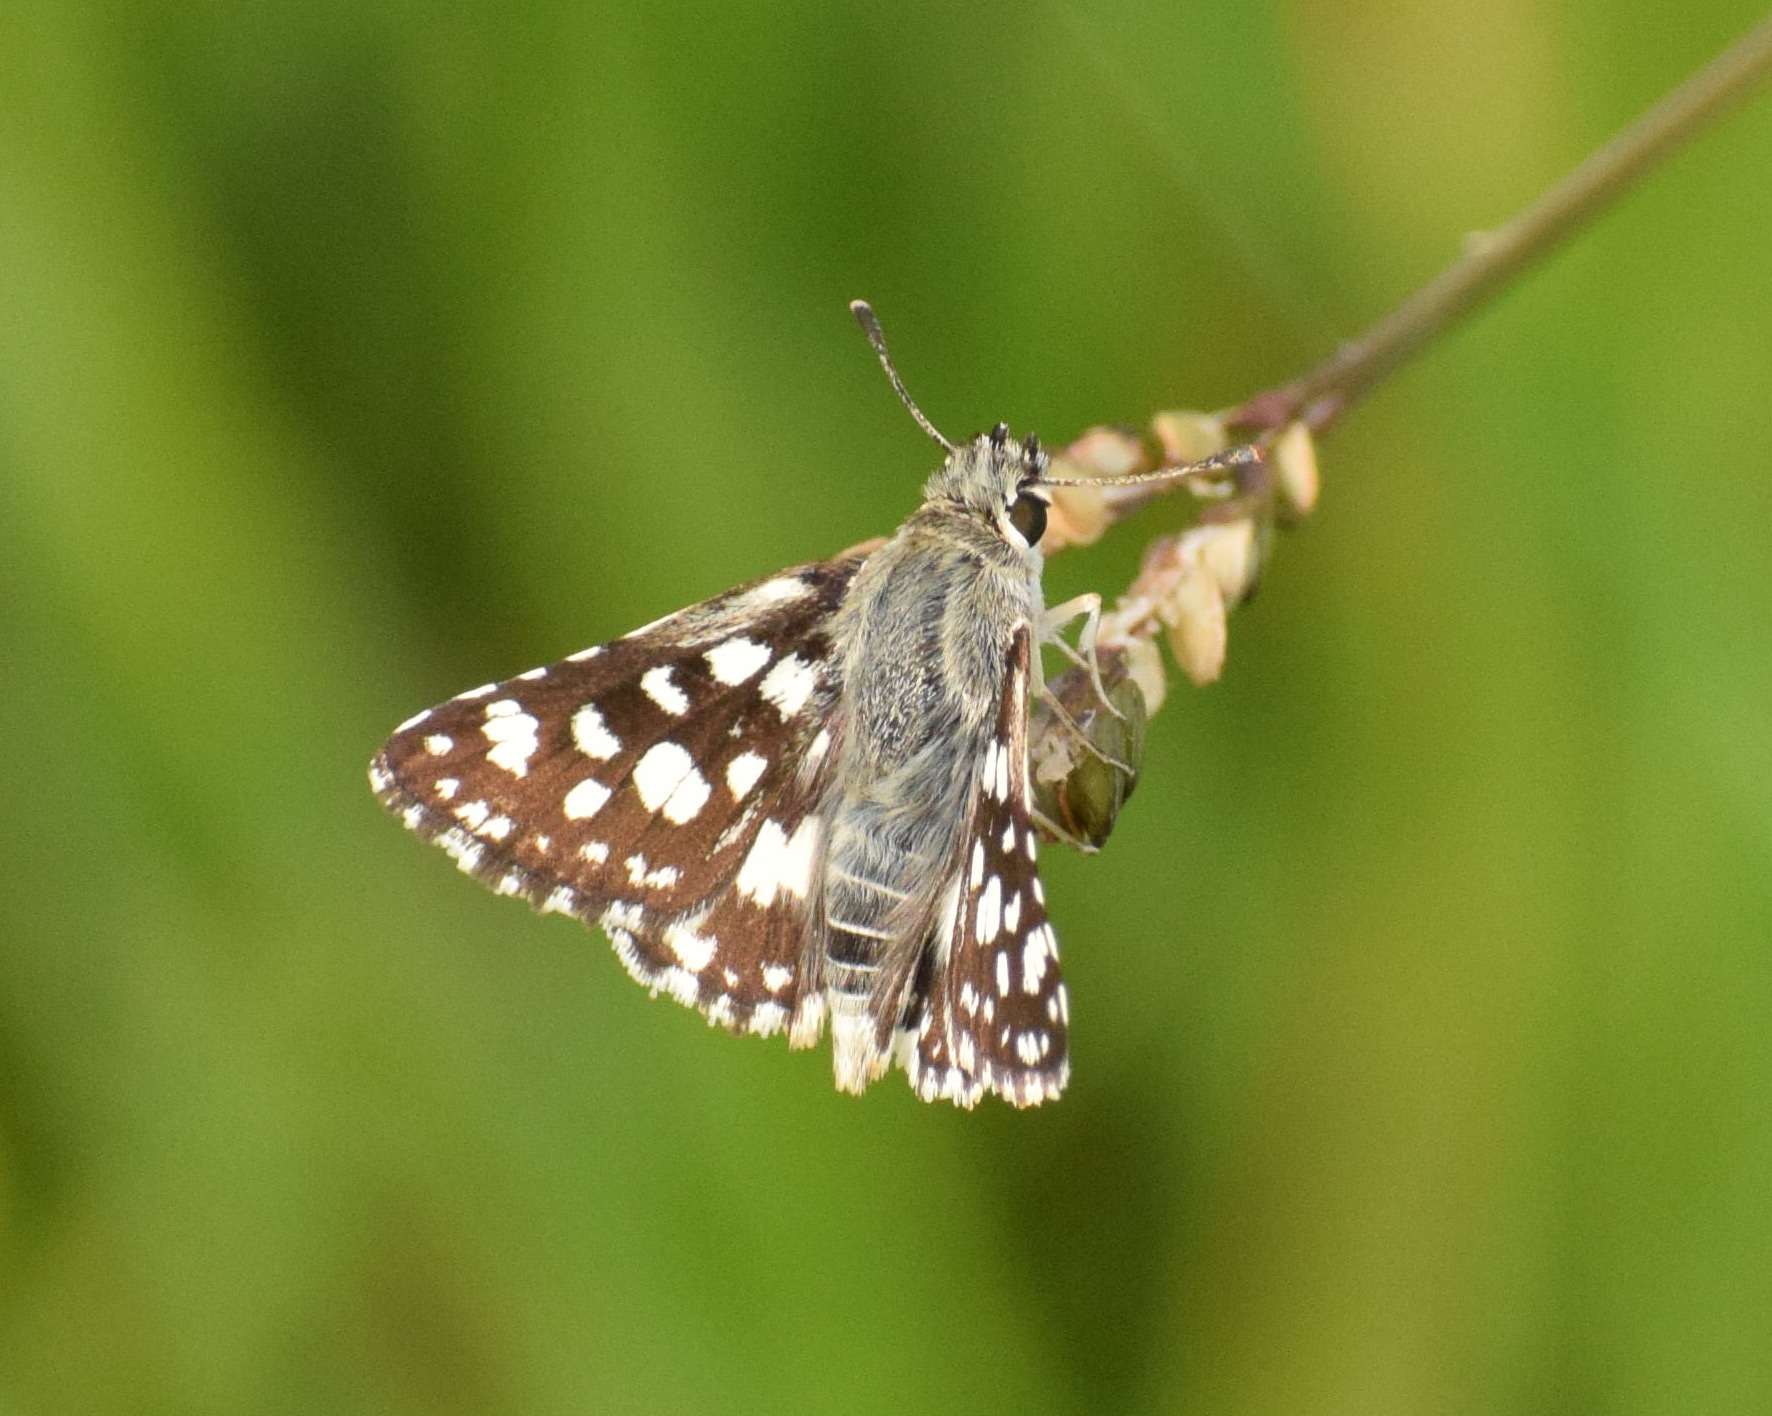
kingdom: Animalia
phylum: Arthropoda
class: Insecta
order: Lepidoptera
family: Hesperiidae
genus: Spialia
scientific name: Spialia spio
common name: Mountain sandman
